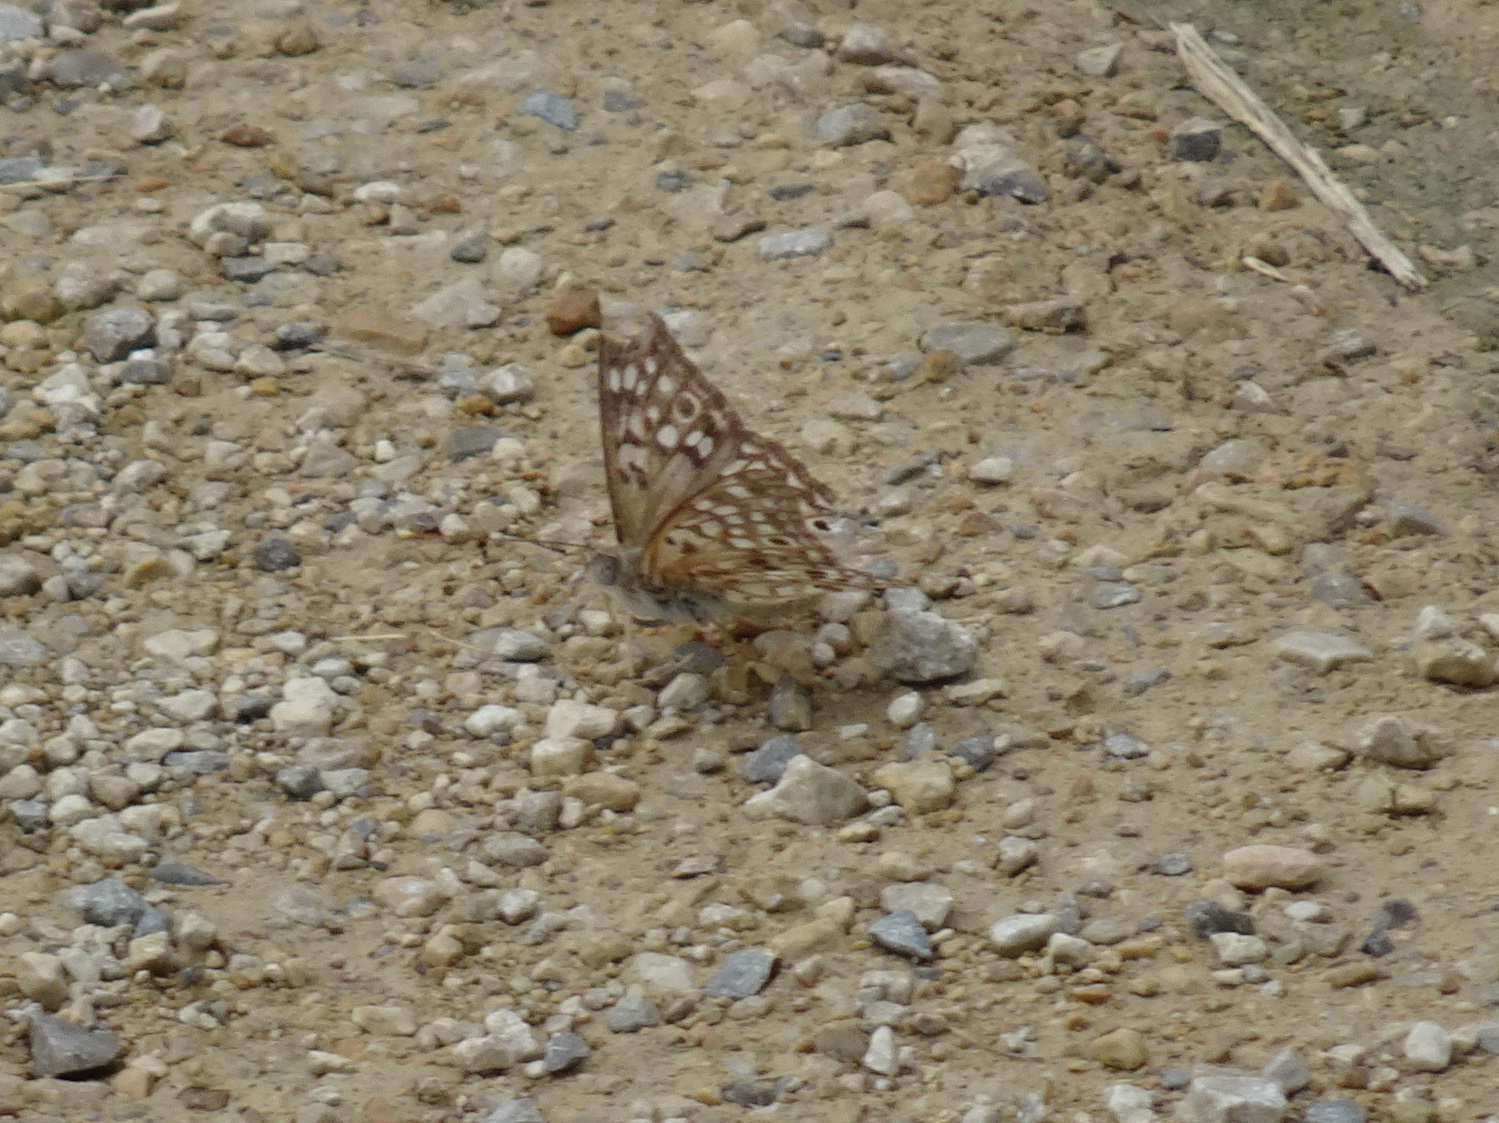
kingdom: Animalia
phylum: Arthropoda
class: Insecta
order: Lepidoptera
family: Nymphalidae
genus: Asterocampa
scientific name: Asterocampa celtis
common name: Hackberry emperor
